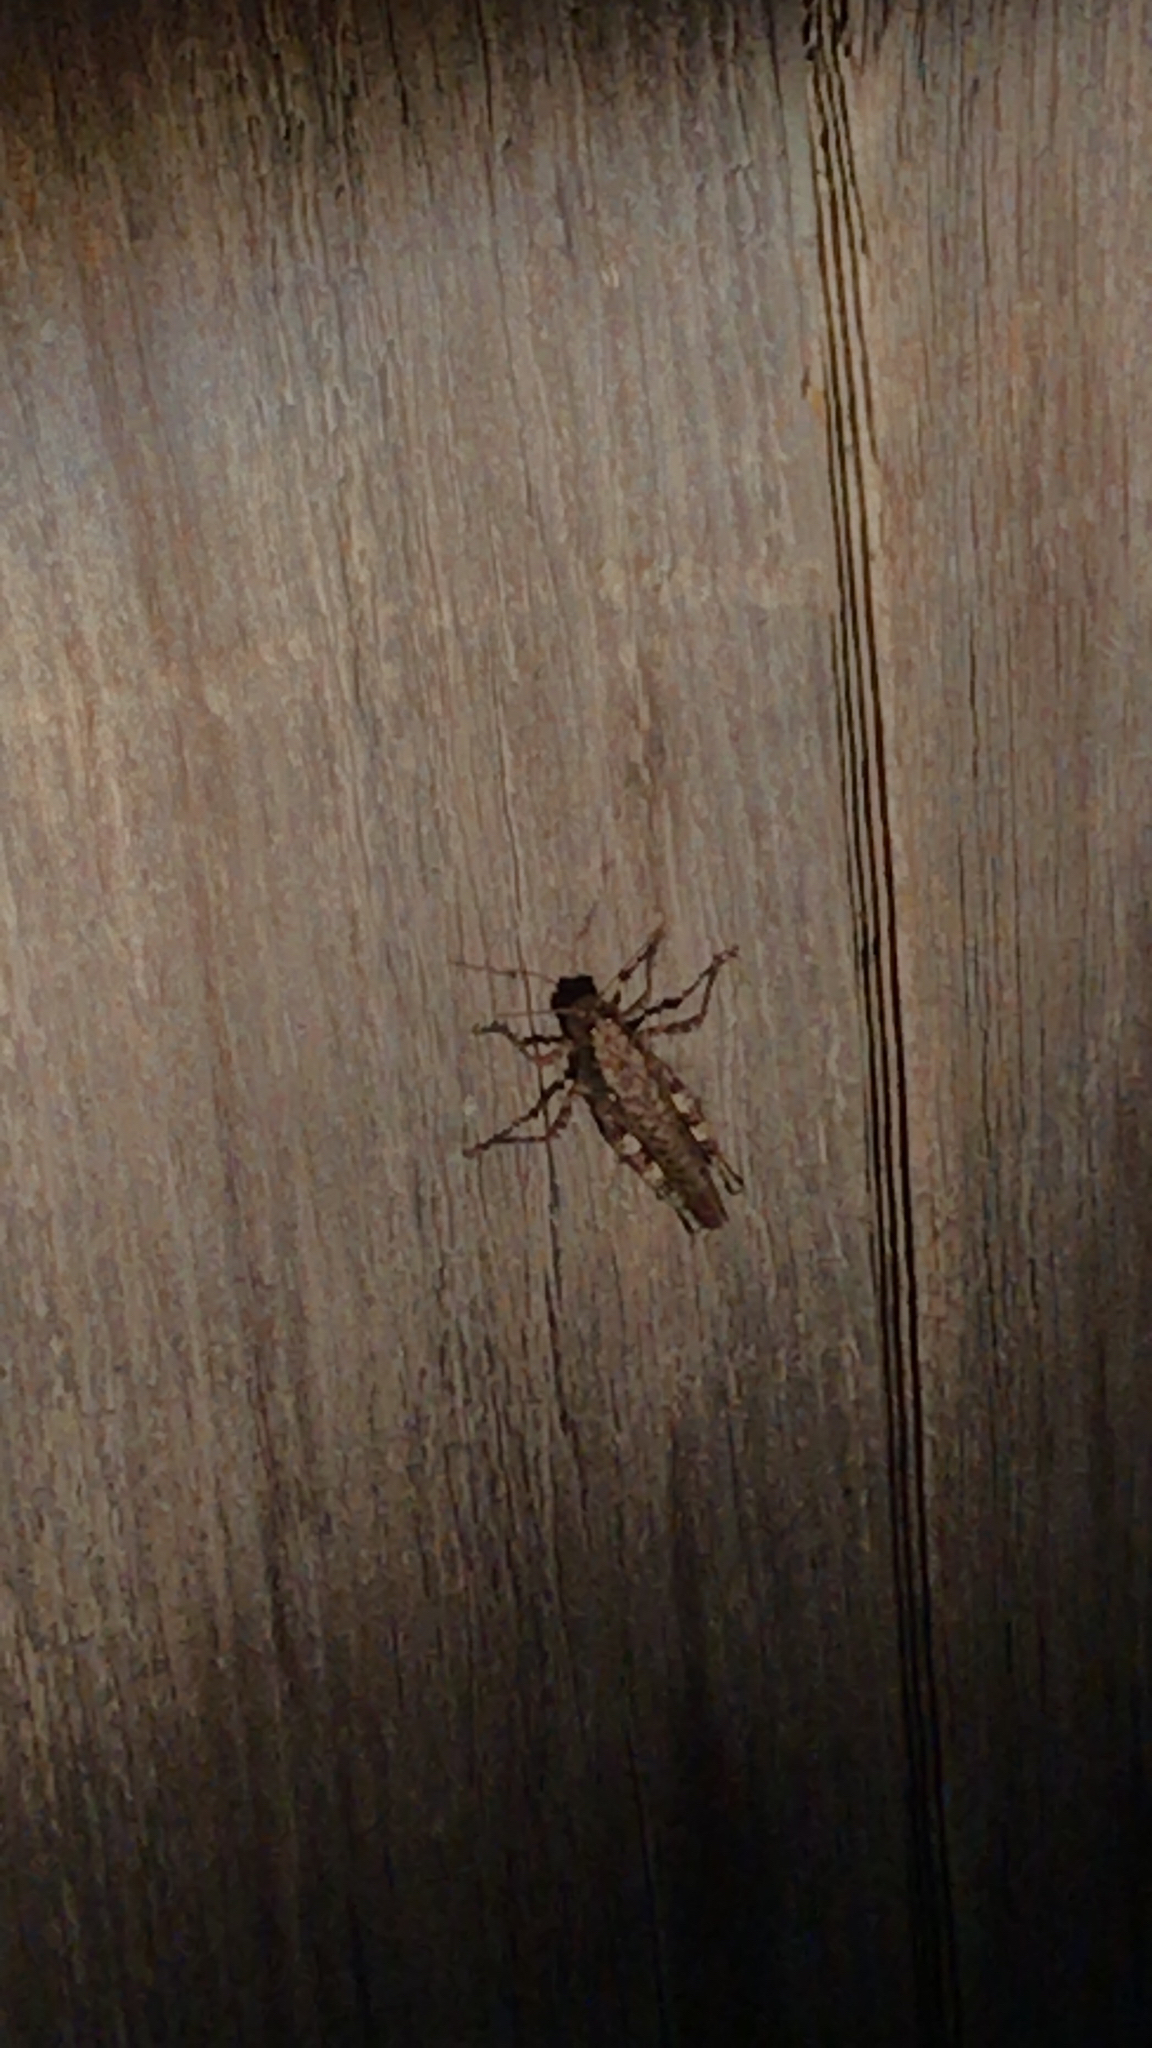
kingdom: Animalia
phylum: Arthropoda
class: Insecta
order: Orthoptera
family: Acrididae
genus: Melanoplus
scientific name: Melanoplus punctulatus
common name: Pine-tree spur-throat grasshopper
